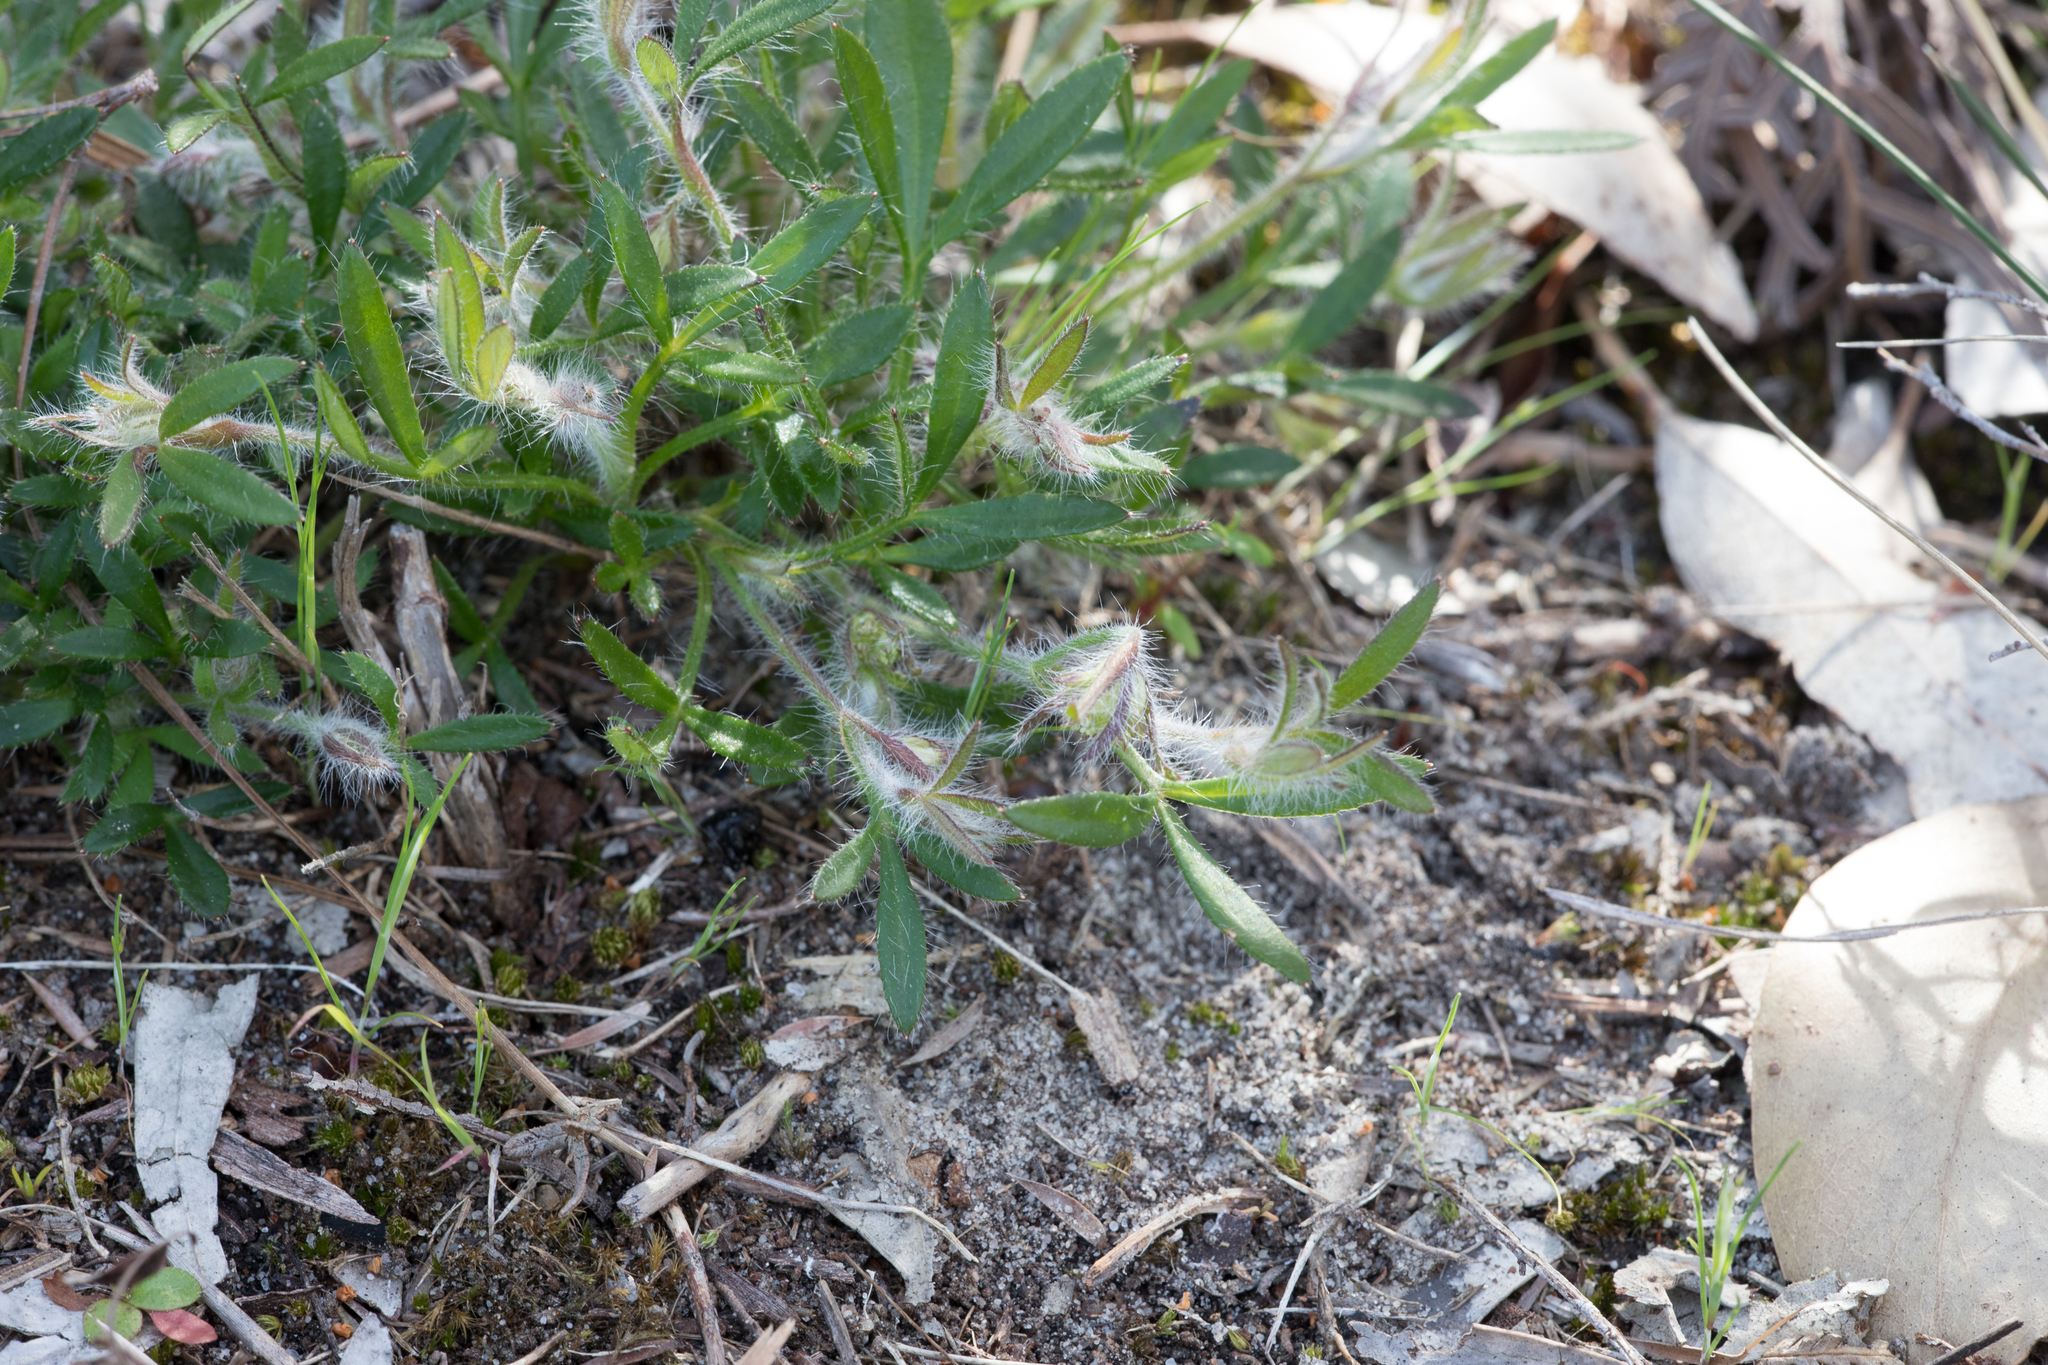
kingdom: Plantae
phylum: Tracheophyta
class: Magnoliopsida
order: Apiales
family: Apiaceae
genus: Xanthosia
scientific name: Xanthosia huegelii
